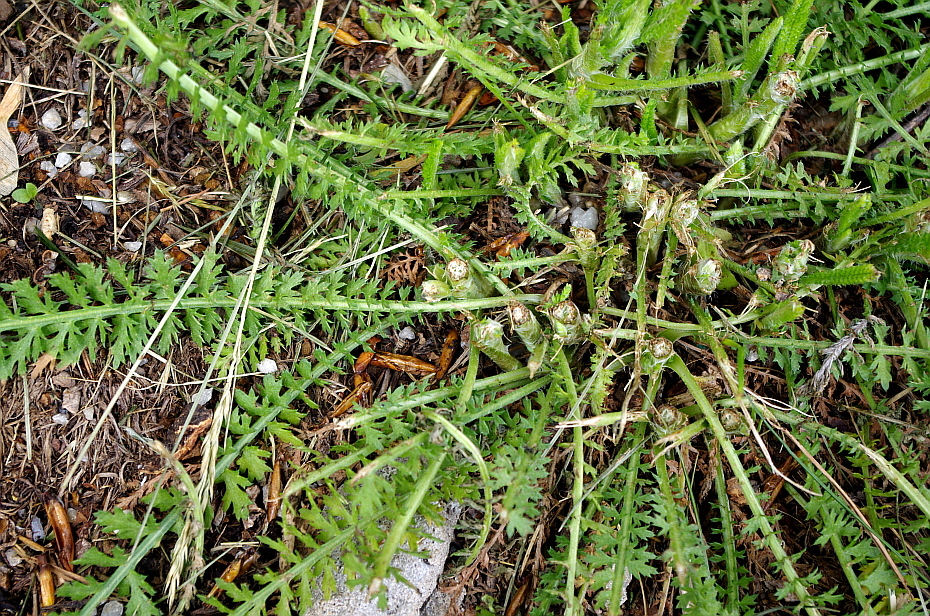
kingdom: Plantae
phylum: Tracheophyta
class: Magnoliopsida
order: Asterales
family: Asteraceae
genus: Achillea
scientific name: Achillea millefolium
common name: Yarrow
